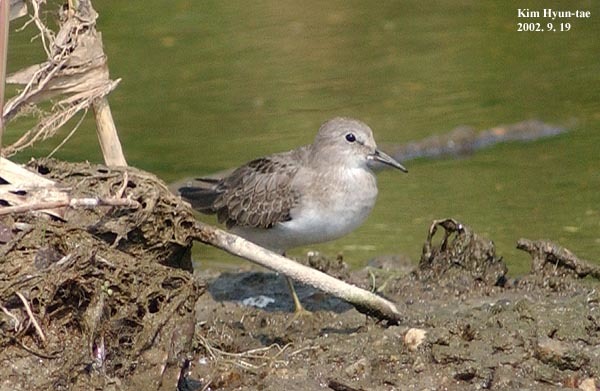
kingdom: Animalia
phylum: Chordata
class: Aves
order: Charadriiformes
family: Scolopacidae
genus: Calidris
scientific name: Calidris temminckii
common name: Temminck's stint
